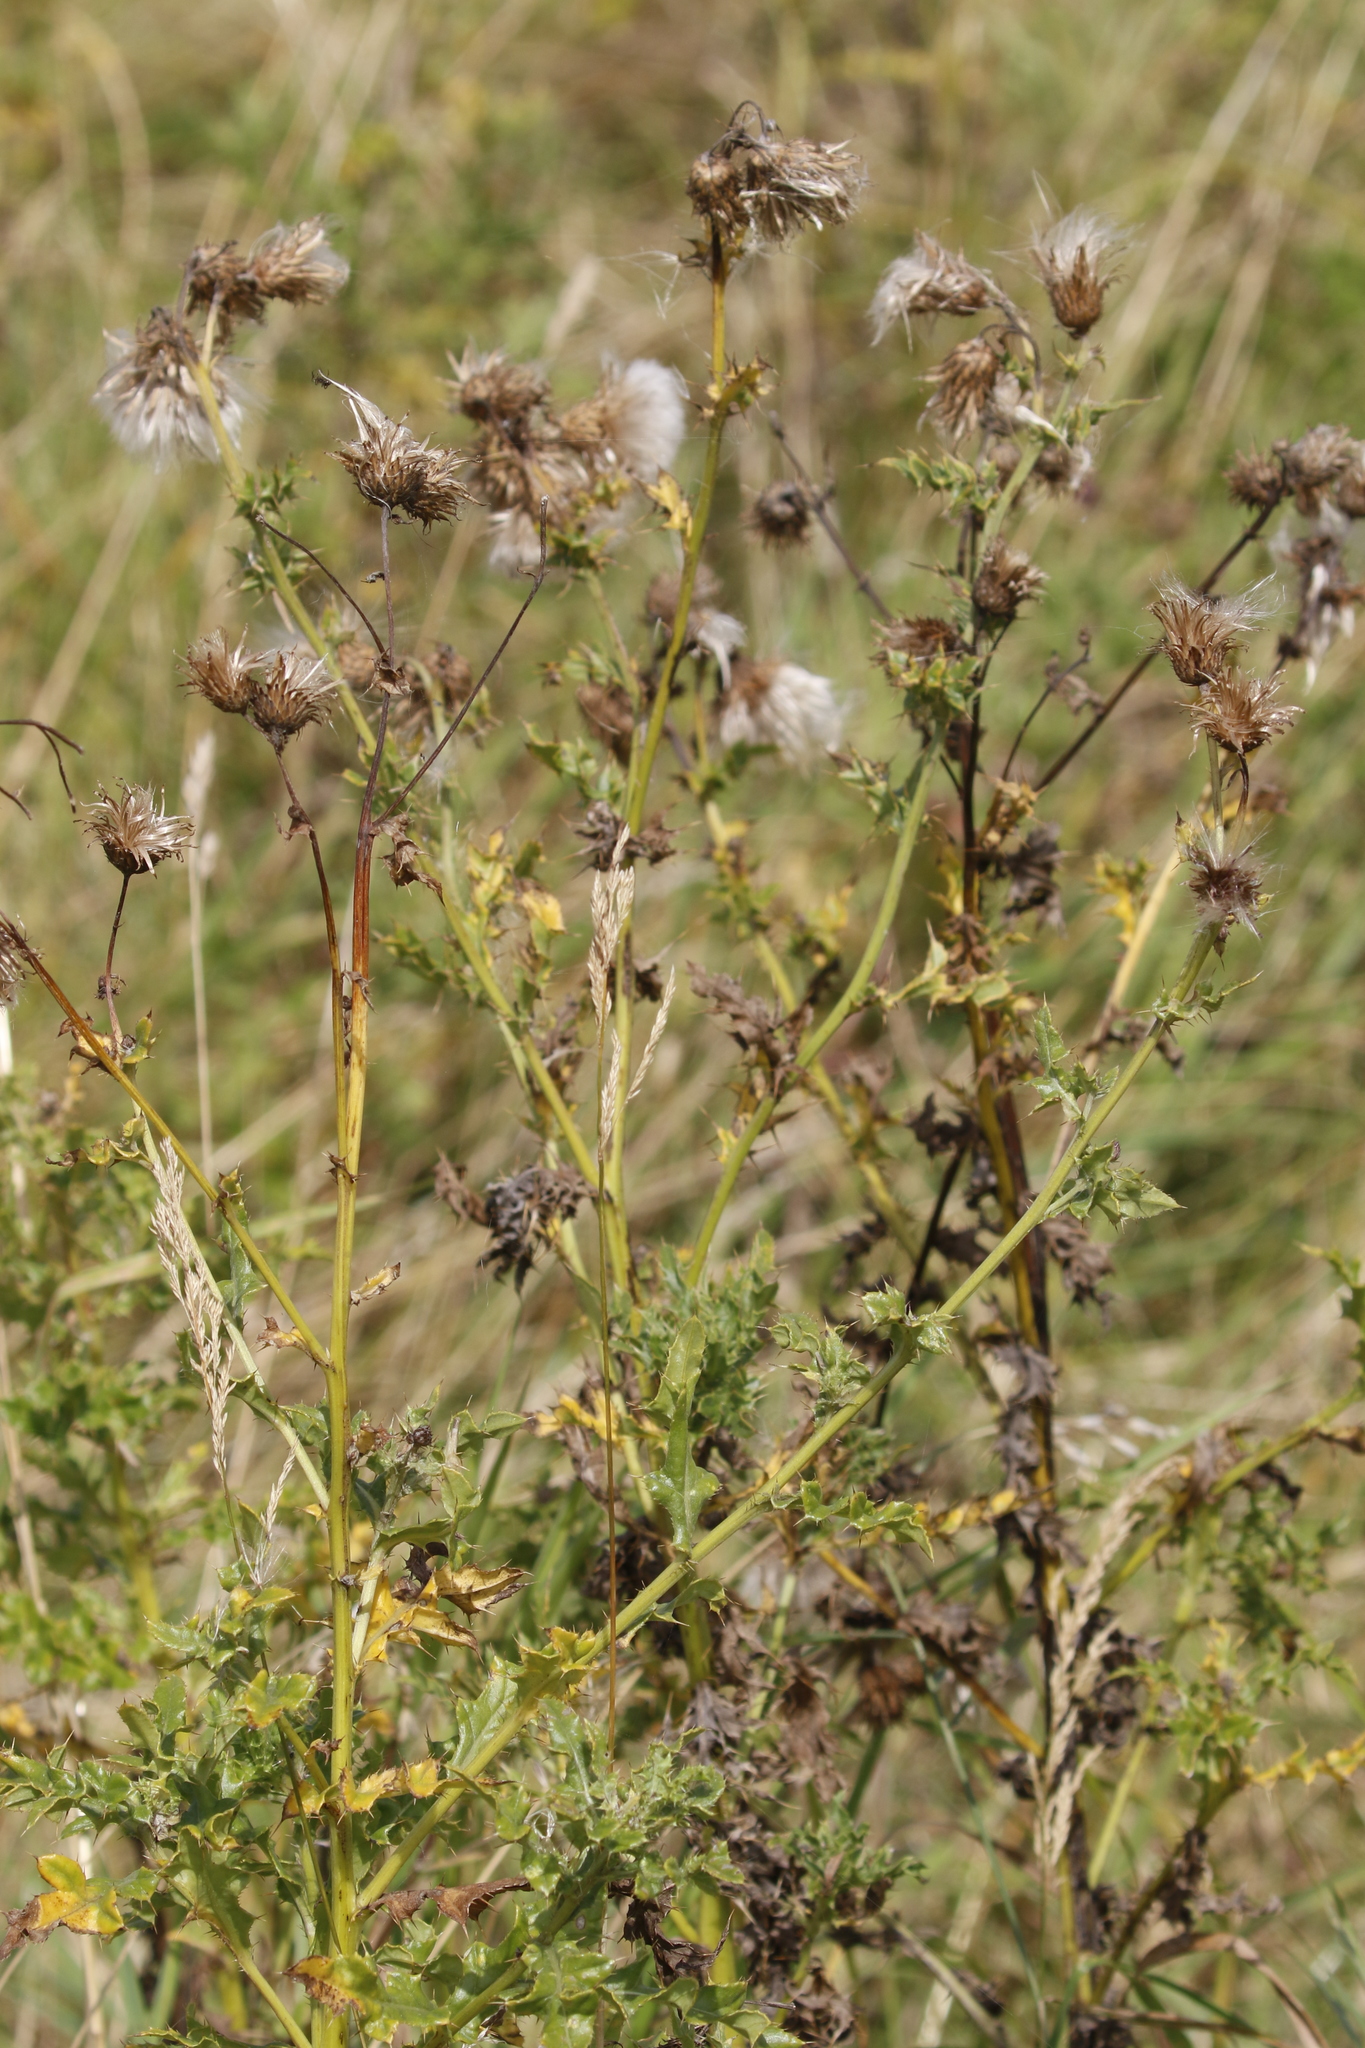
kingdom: Plantae
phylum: Tracheophyta
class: Magnoliopsida
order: Asterales
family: Asteraceae
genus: Cirsium
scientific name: Cirsium arvense
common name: Creeping thistle
